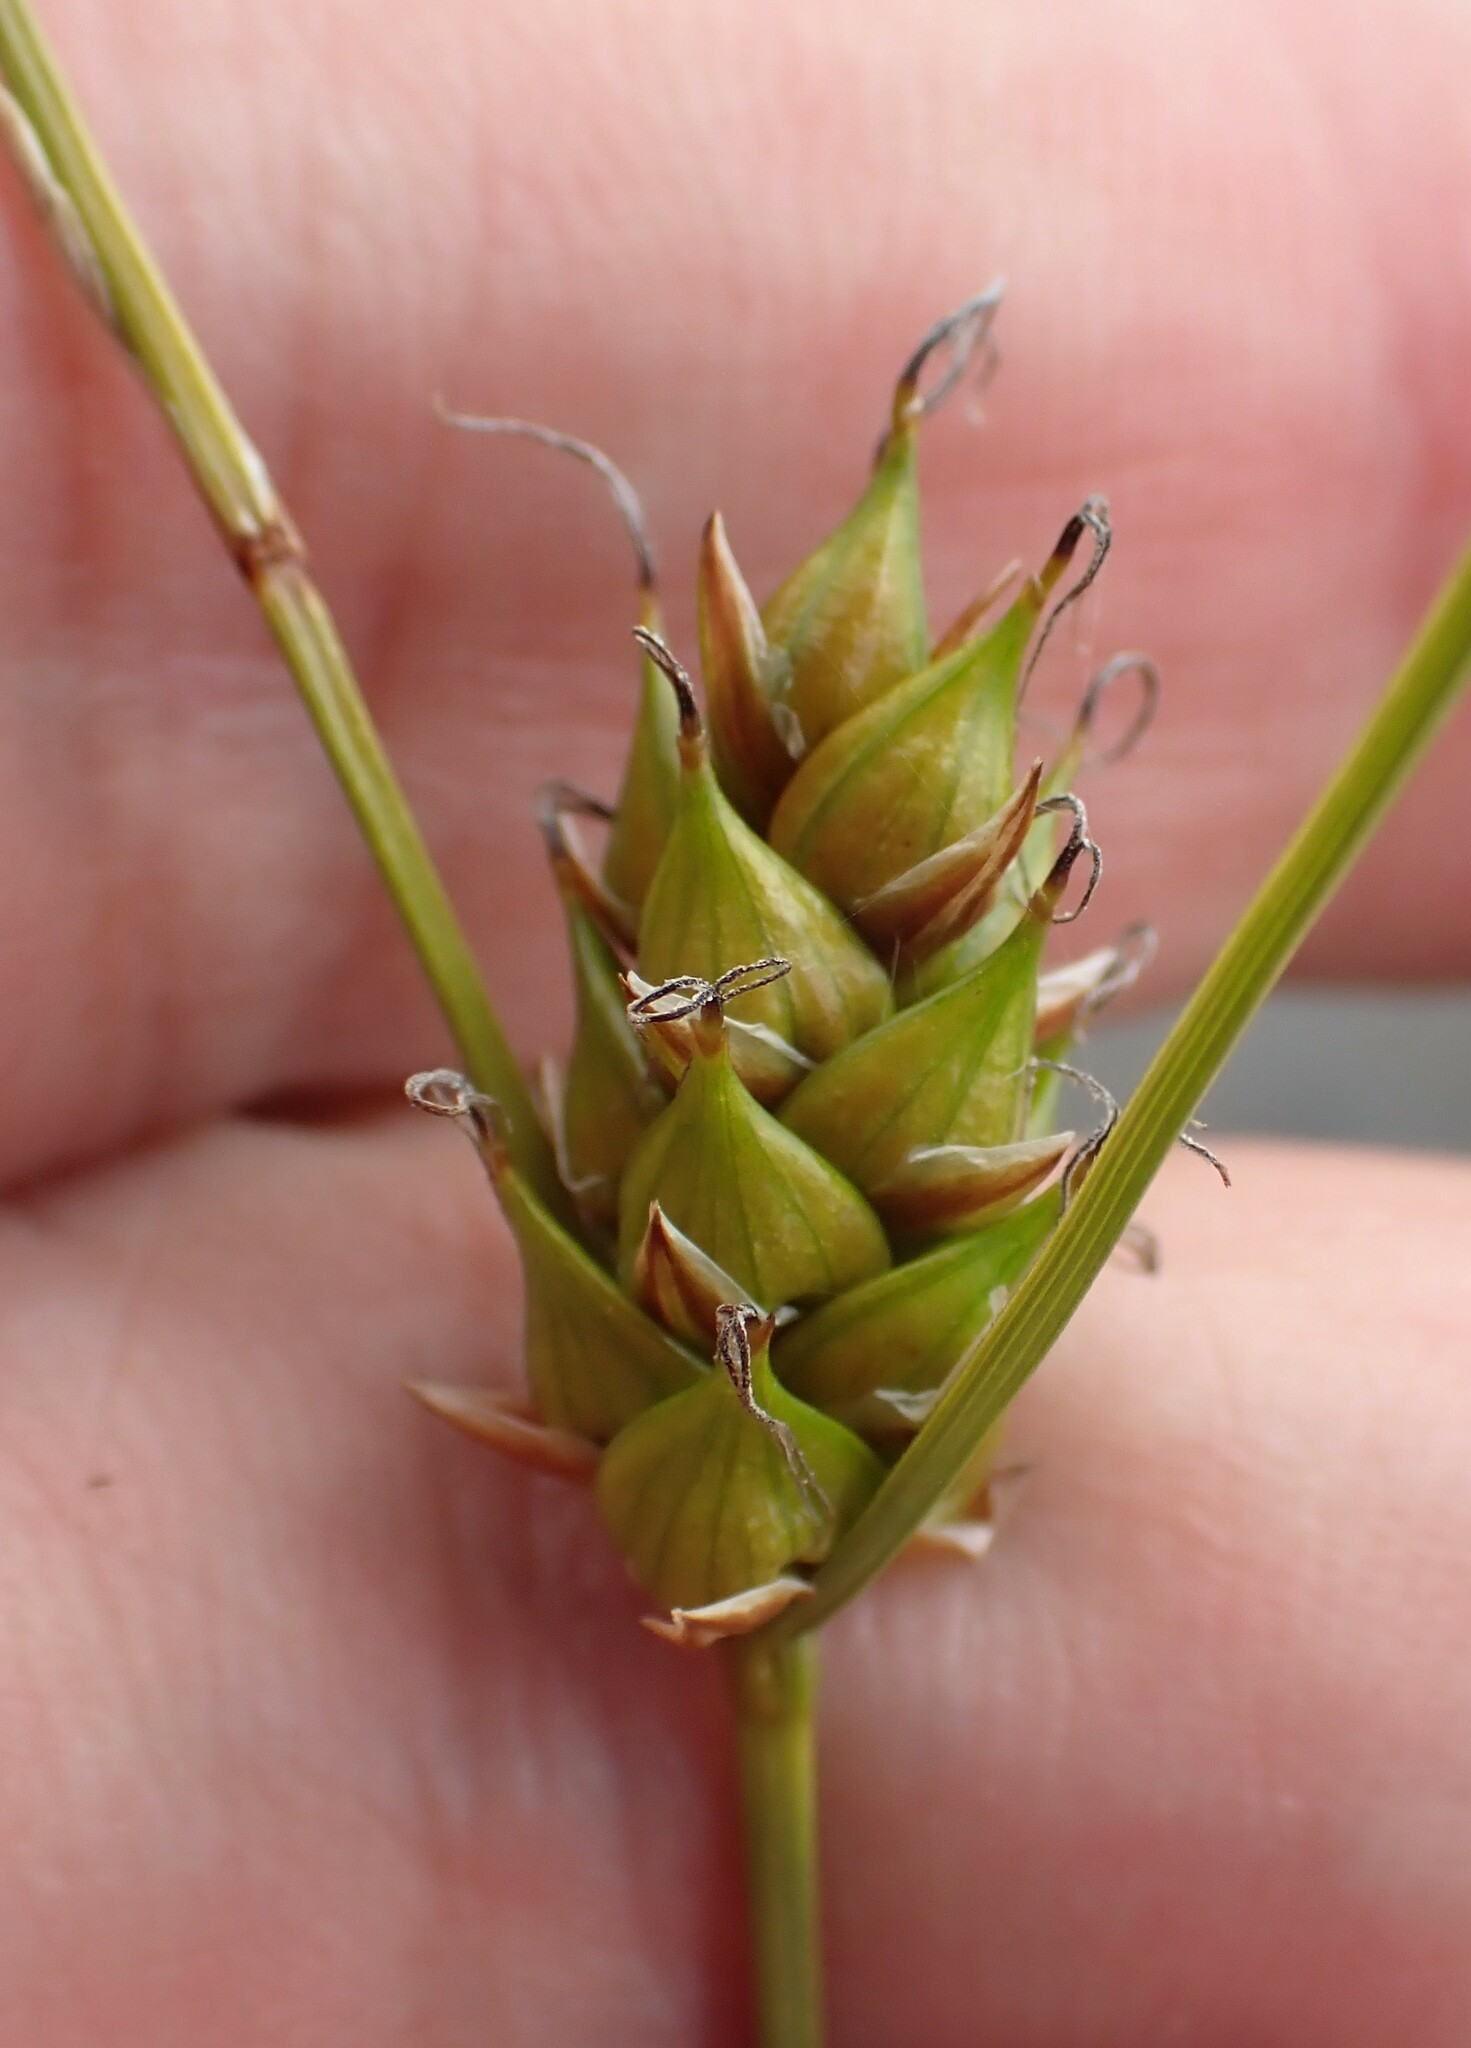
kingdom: Plantae
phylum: Tracheophyta
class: Liliopsida
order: Poales
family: Cyperaceae
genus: Carex
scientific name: Carex oligosperma
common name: Few-seed sedge
